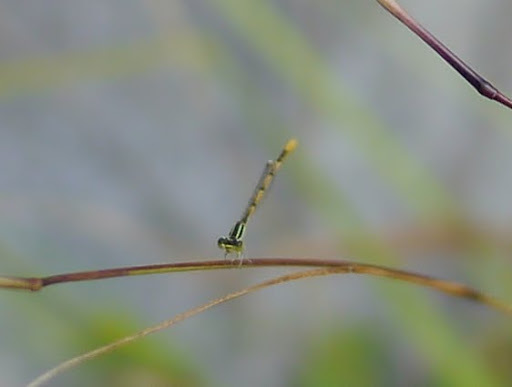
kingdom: Animalia
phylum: Arthropoda
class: Insecta
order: Odonata
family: Coenagrionidae
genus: Ischnura
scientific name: Ischnura hastata
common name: Citrine forktail
